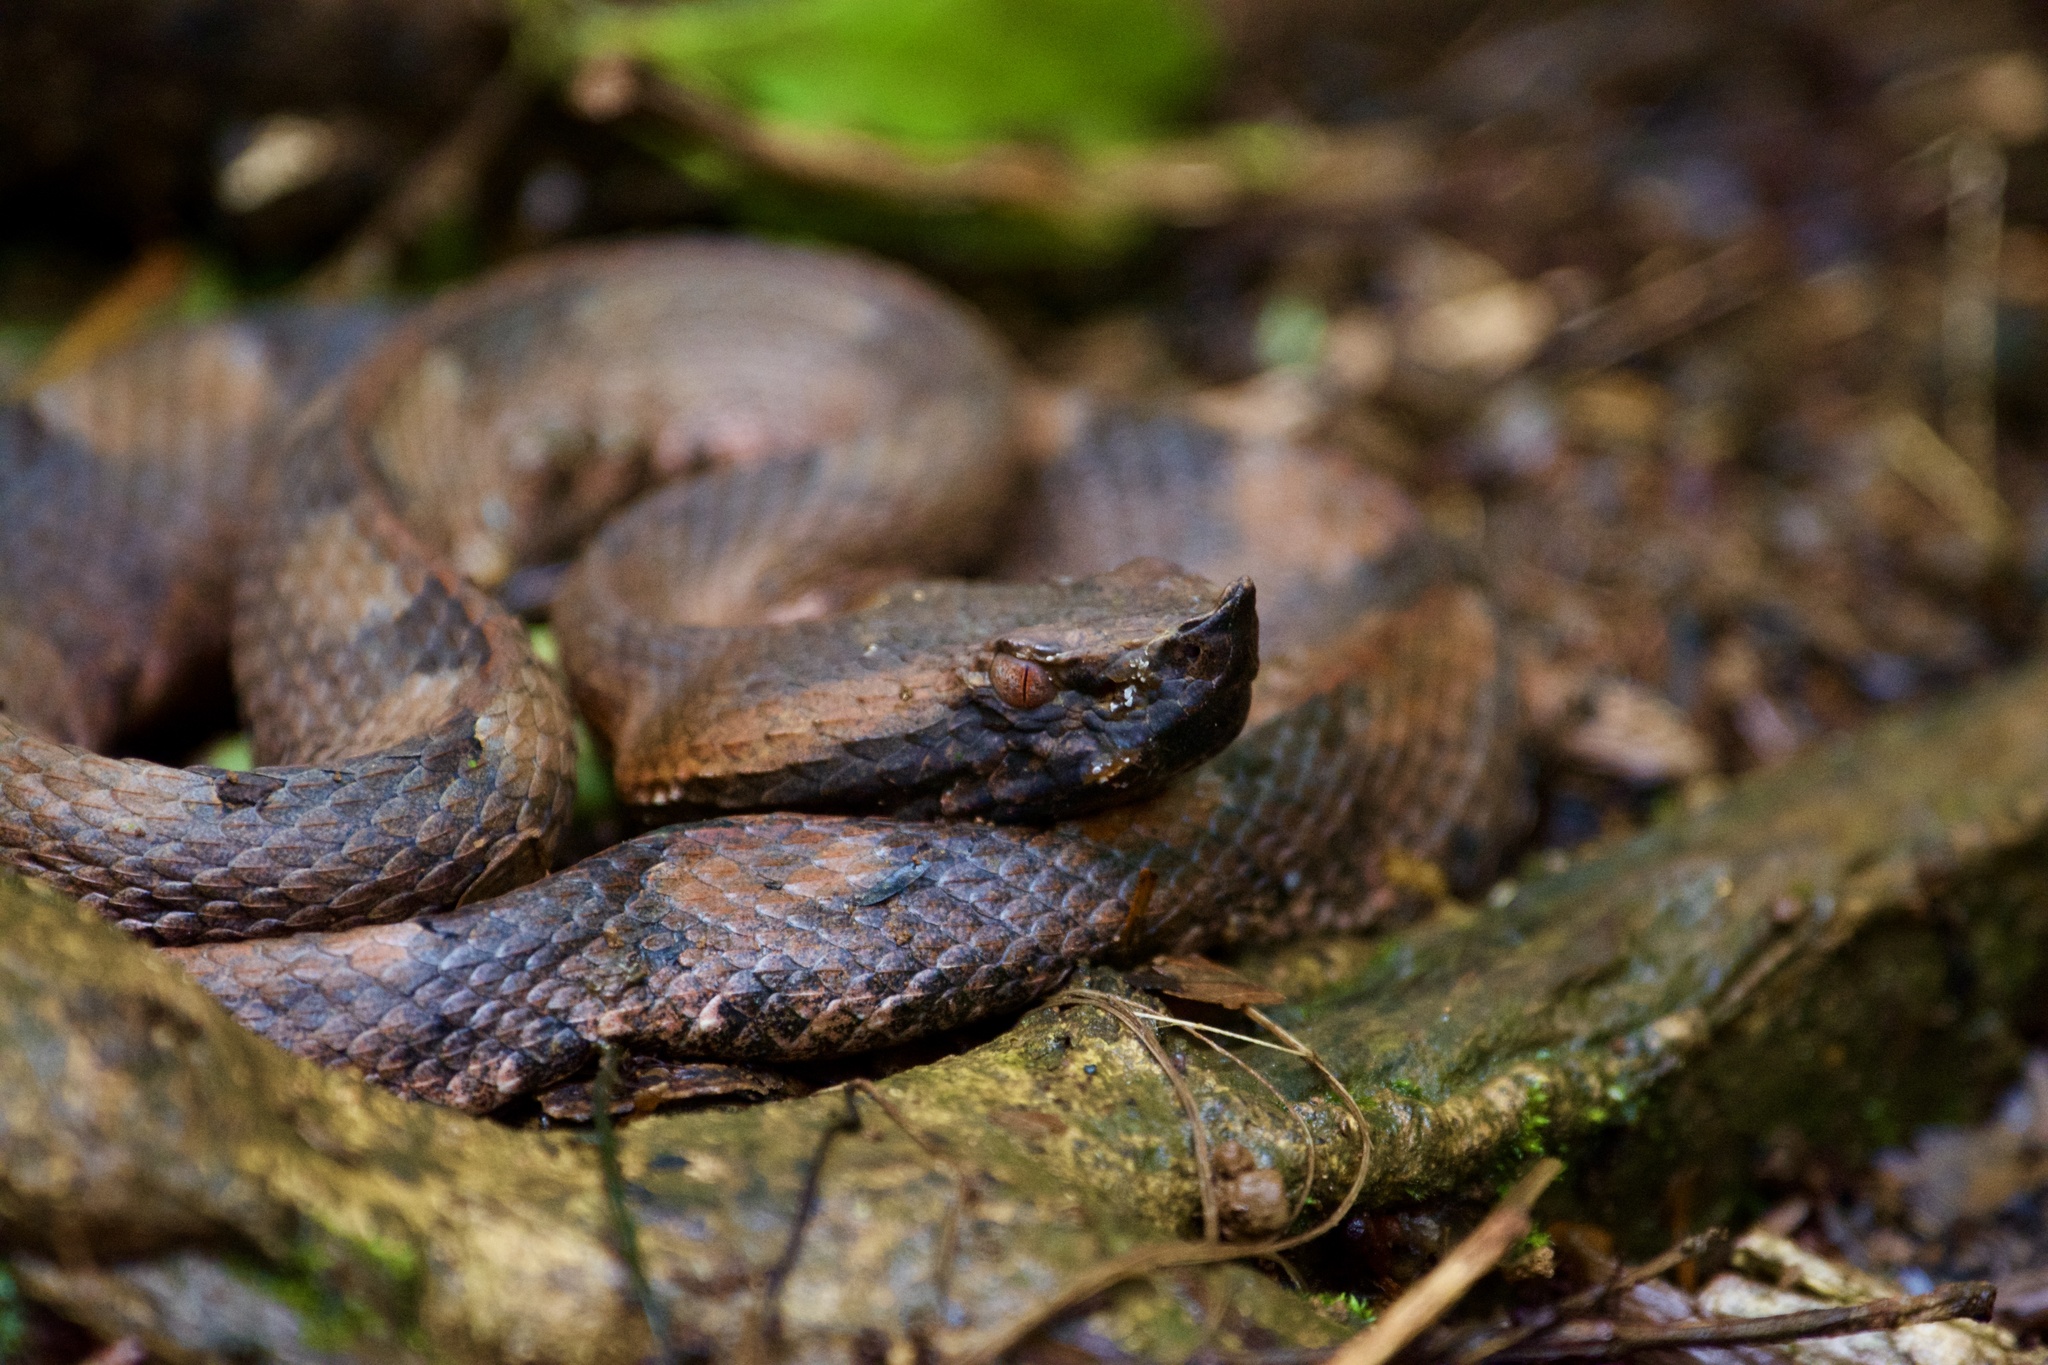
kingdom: Animalia
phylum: Chordata
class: Squamata
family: Viperidae
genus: Porthidium
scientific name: Porthidium nasutum
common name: Hognosed pit viper
